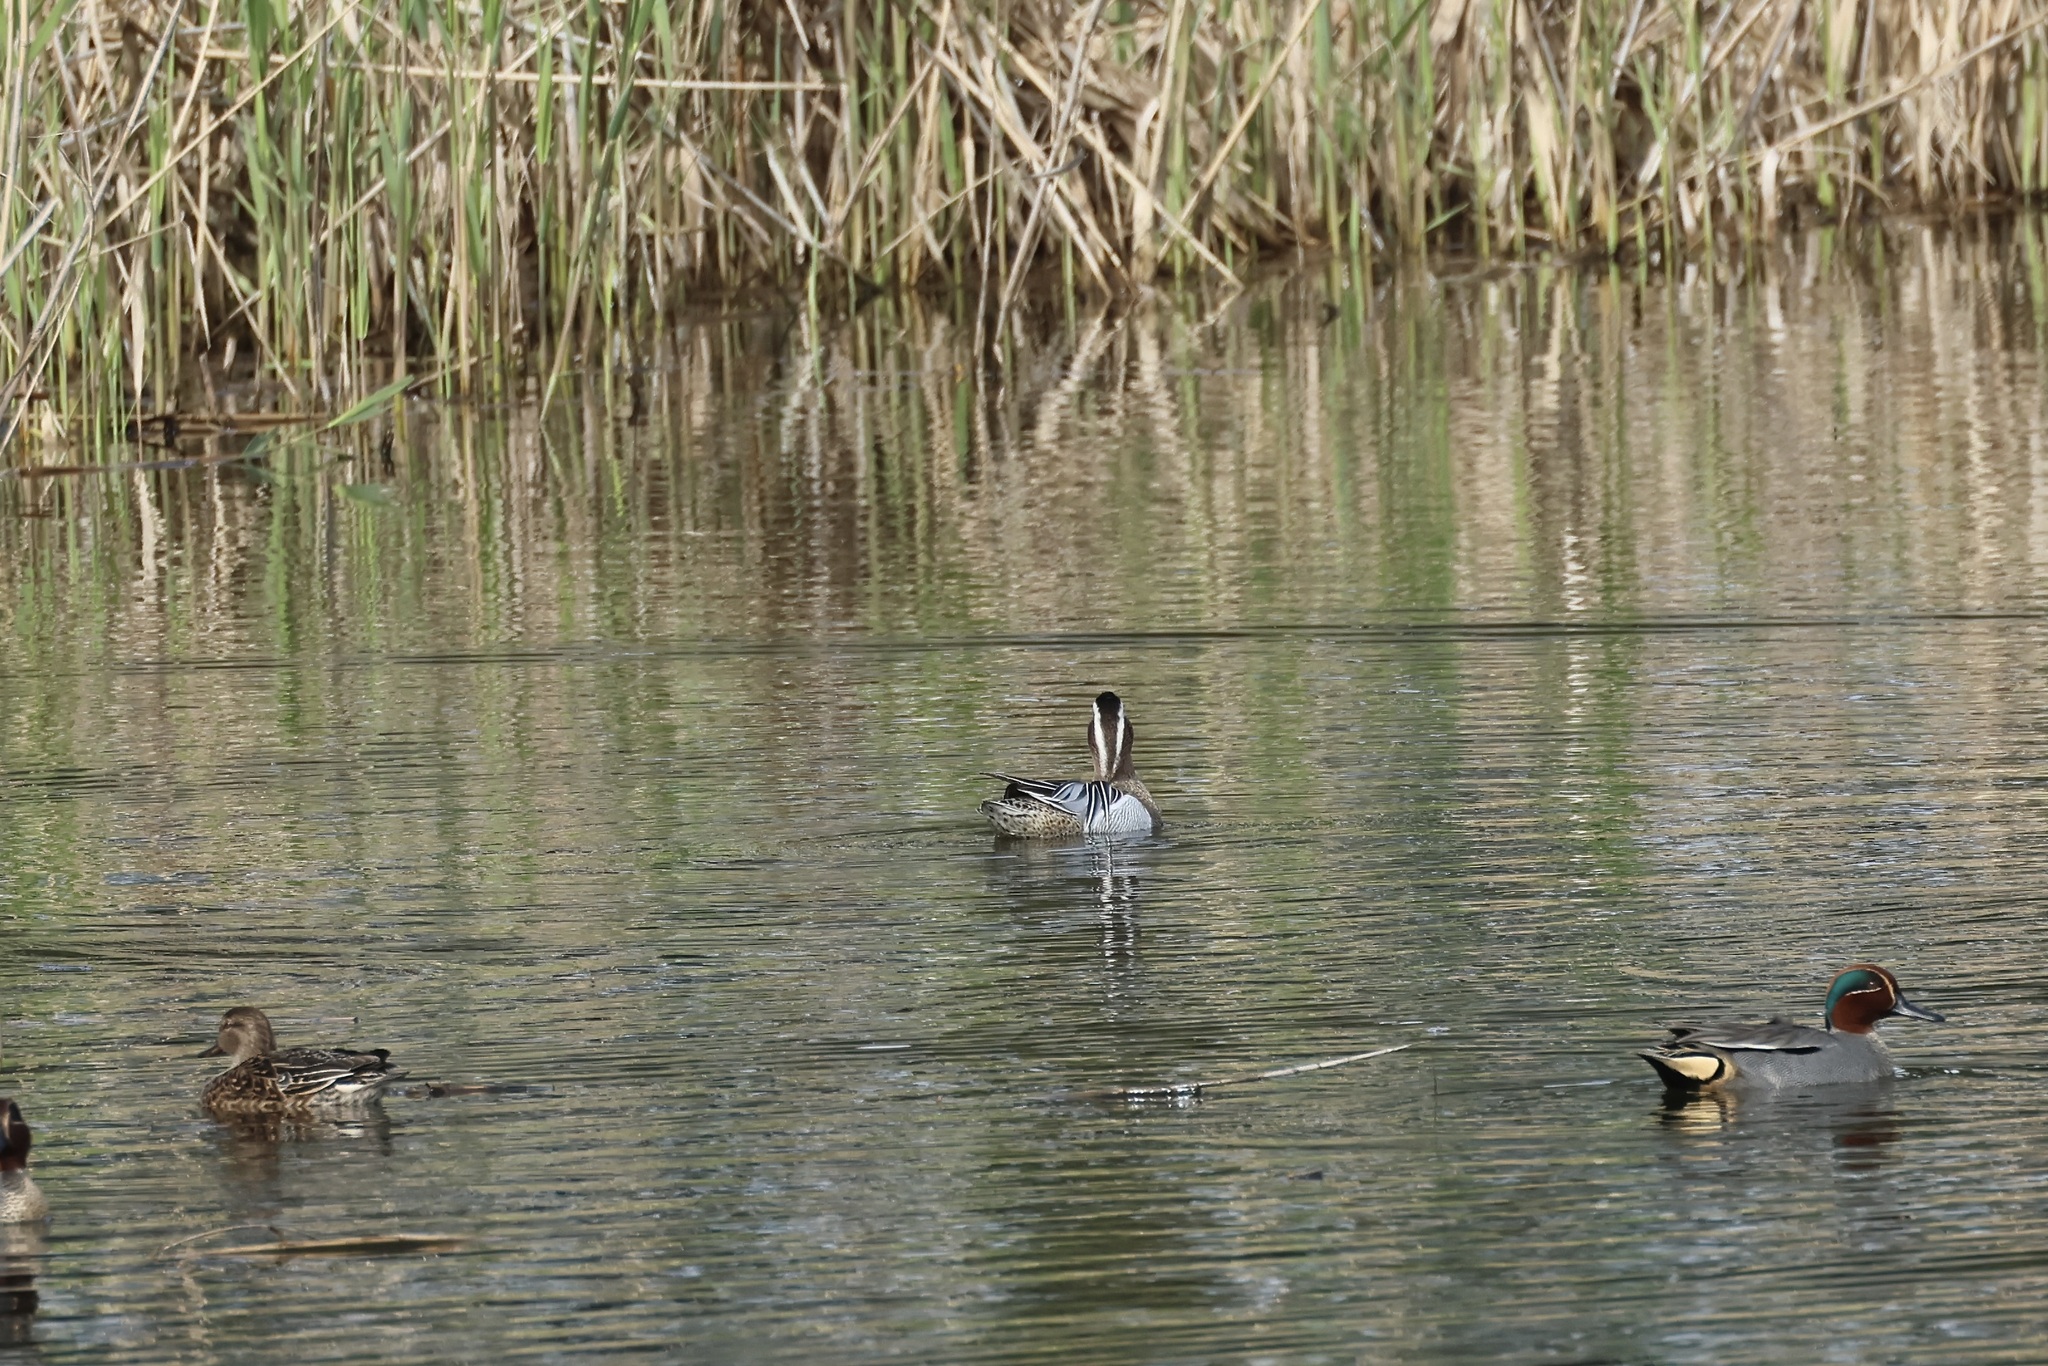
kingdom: Animalia
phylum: Chordata
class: Aves
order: Anseriformes
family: Anatidae
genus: Spatula
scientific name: Spatula querquedula
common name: Garganey
